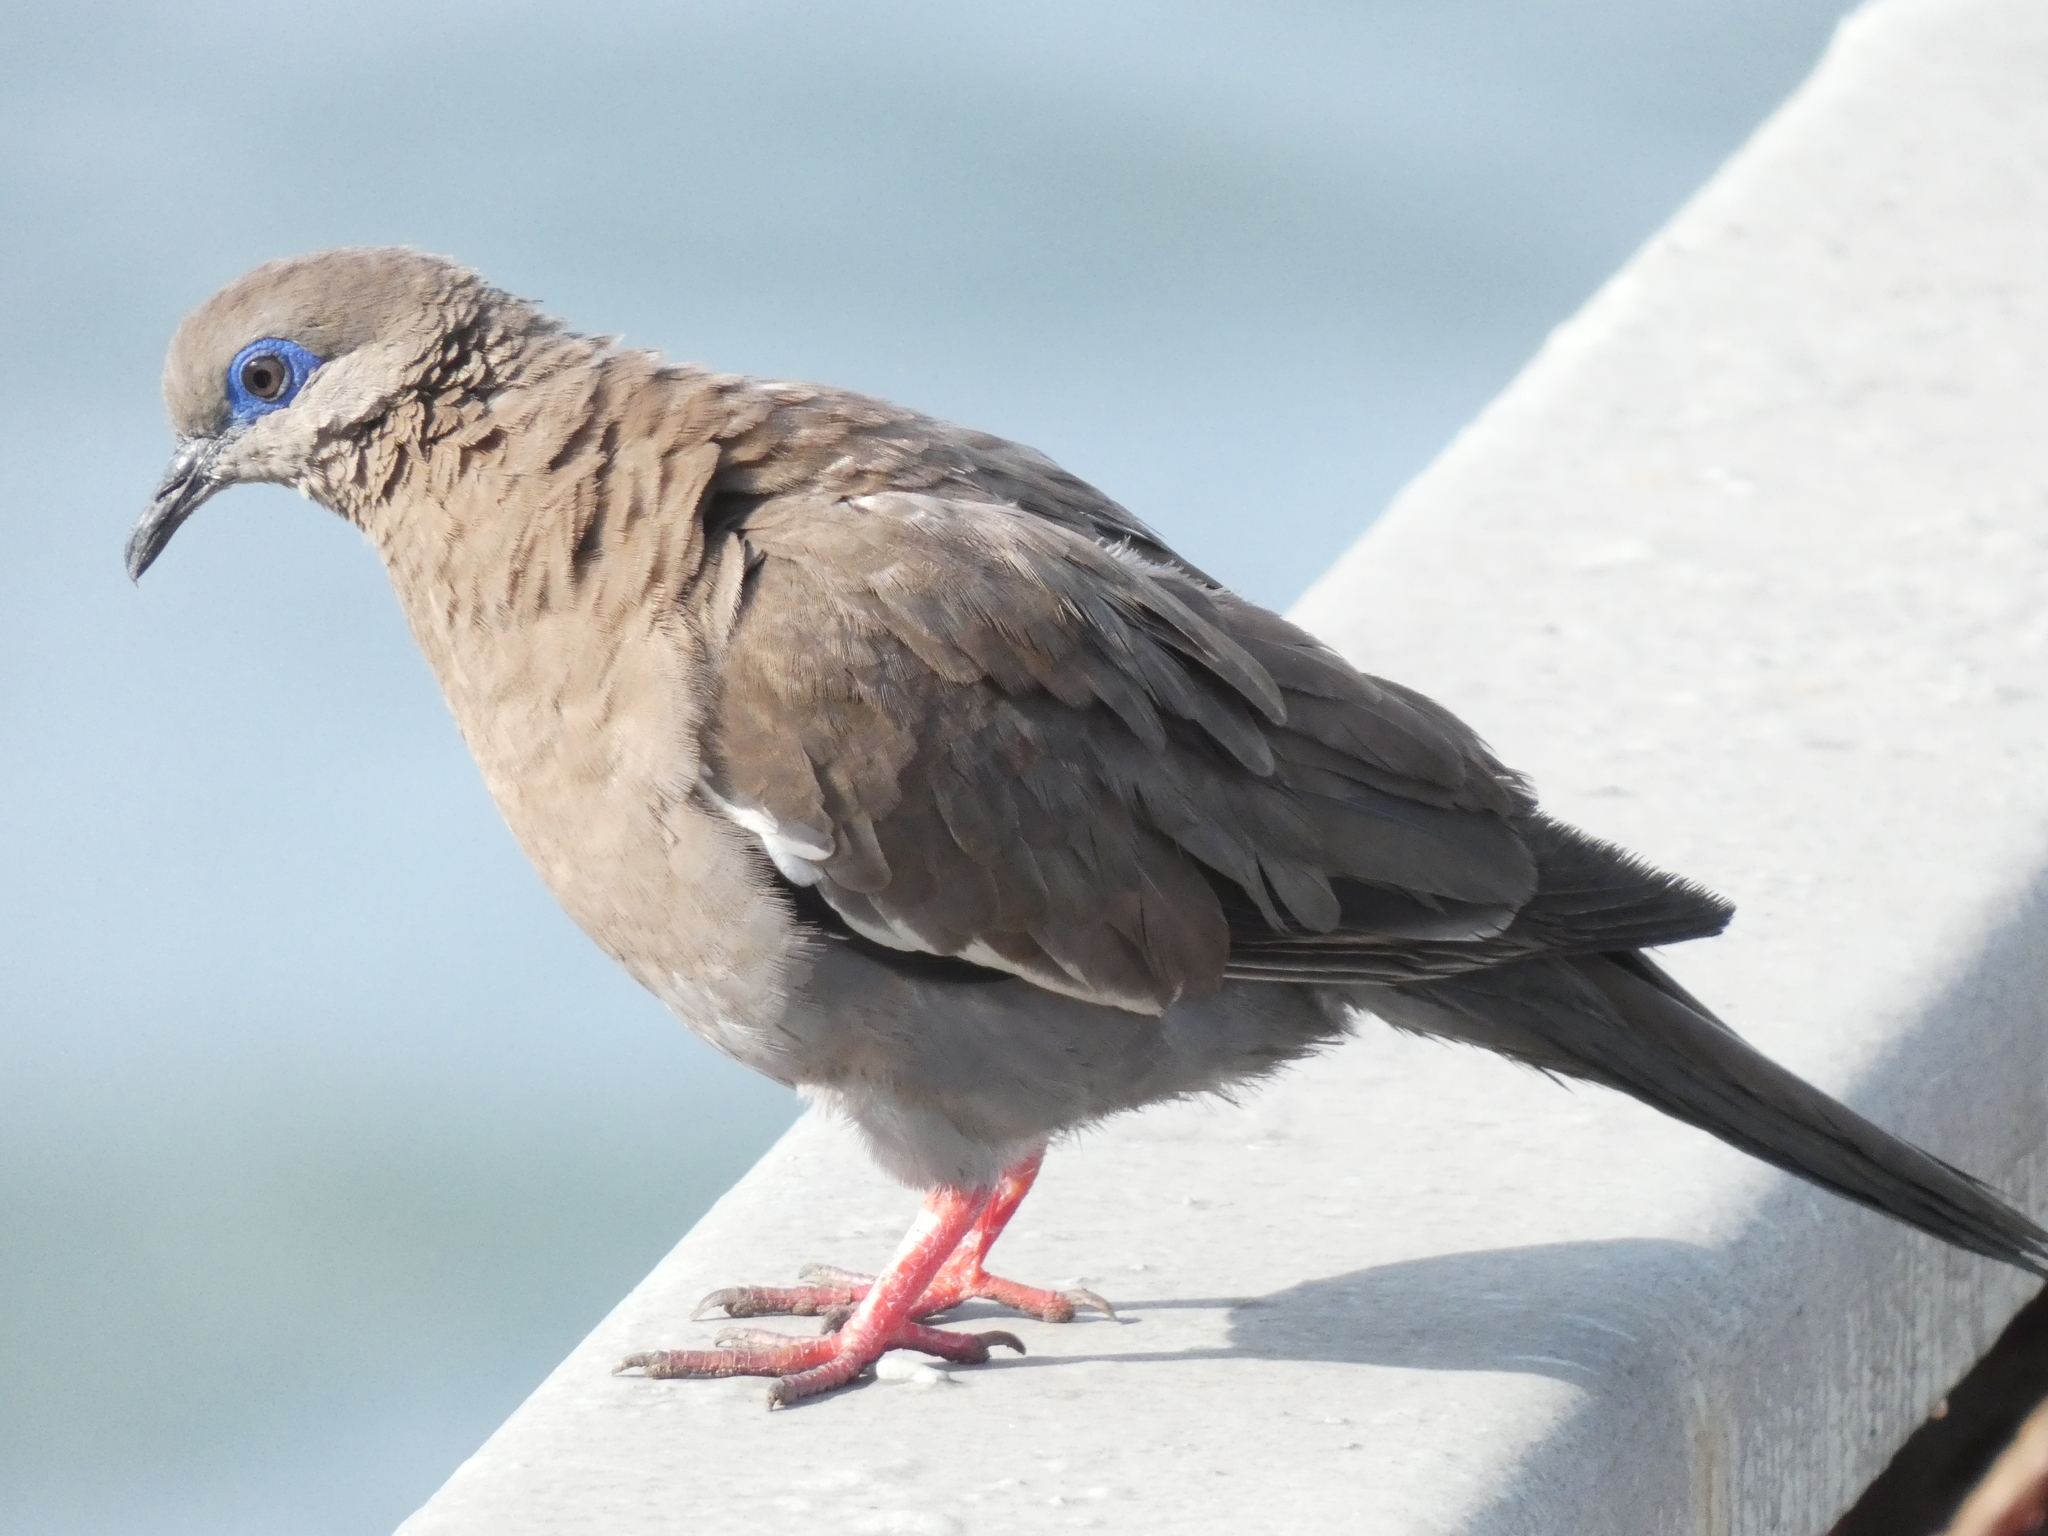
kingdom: Animalia
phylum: Chordata
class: Aves
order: Columbiformes
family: Columbidae
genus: Zenaida
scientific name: Zenaida meloda
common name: West peruvian dove
